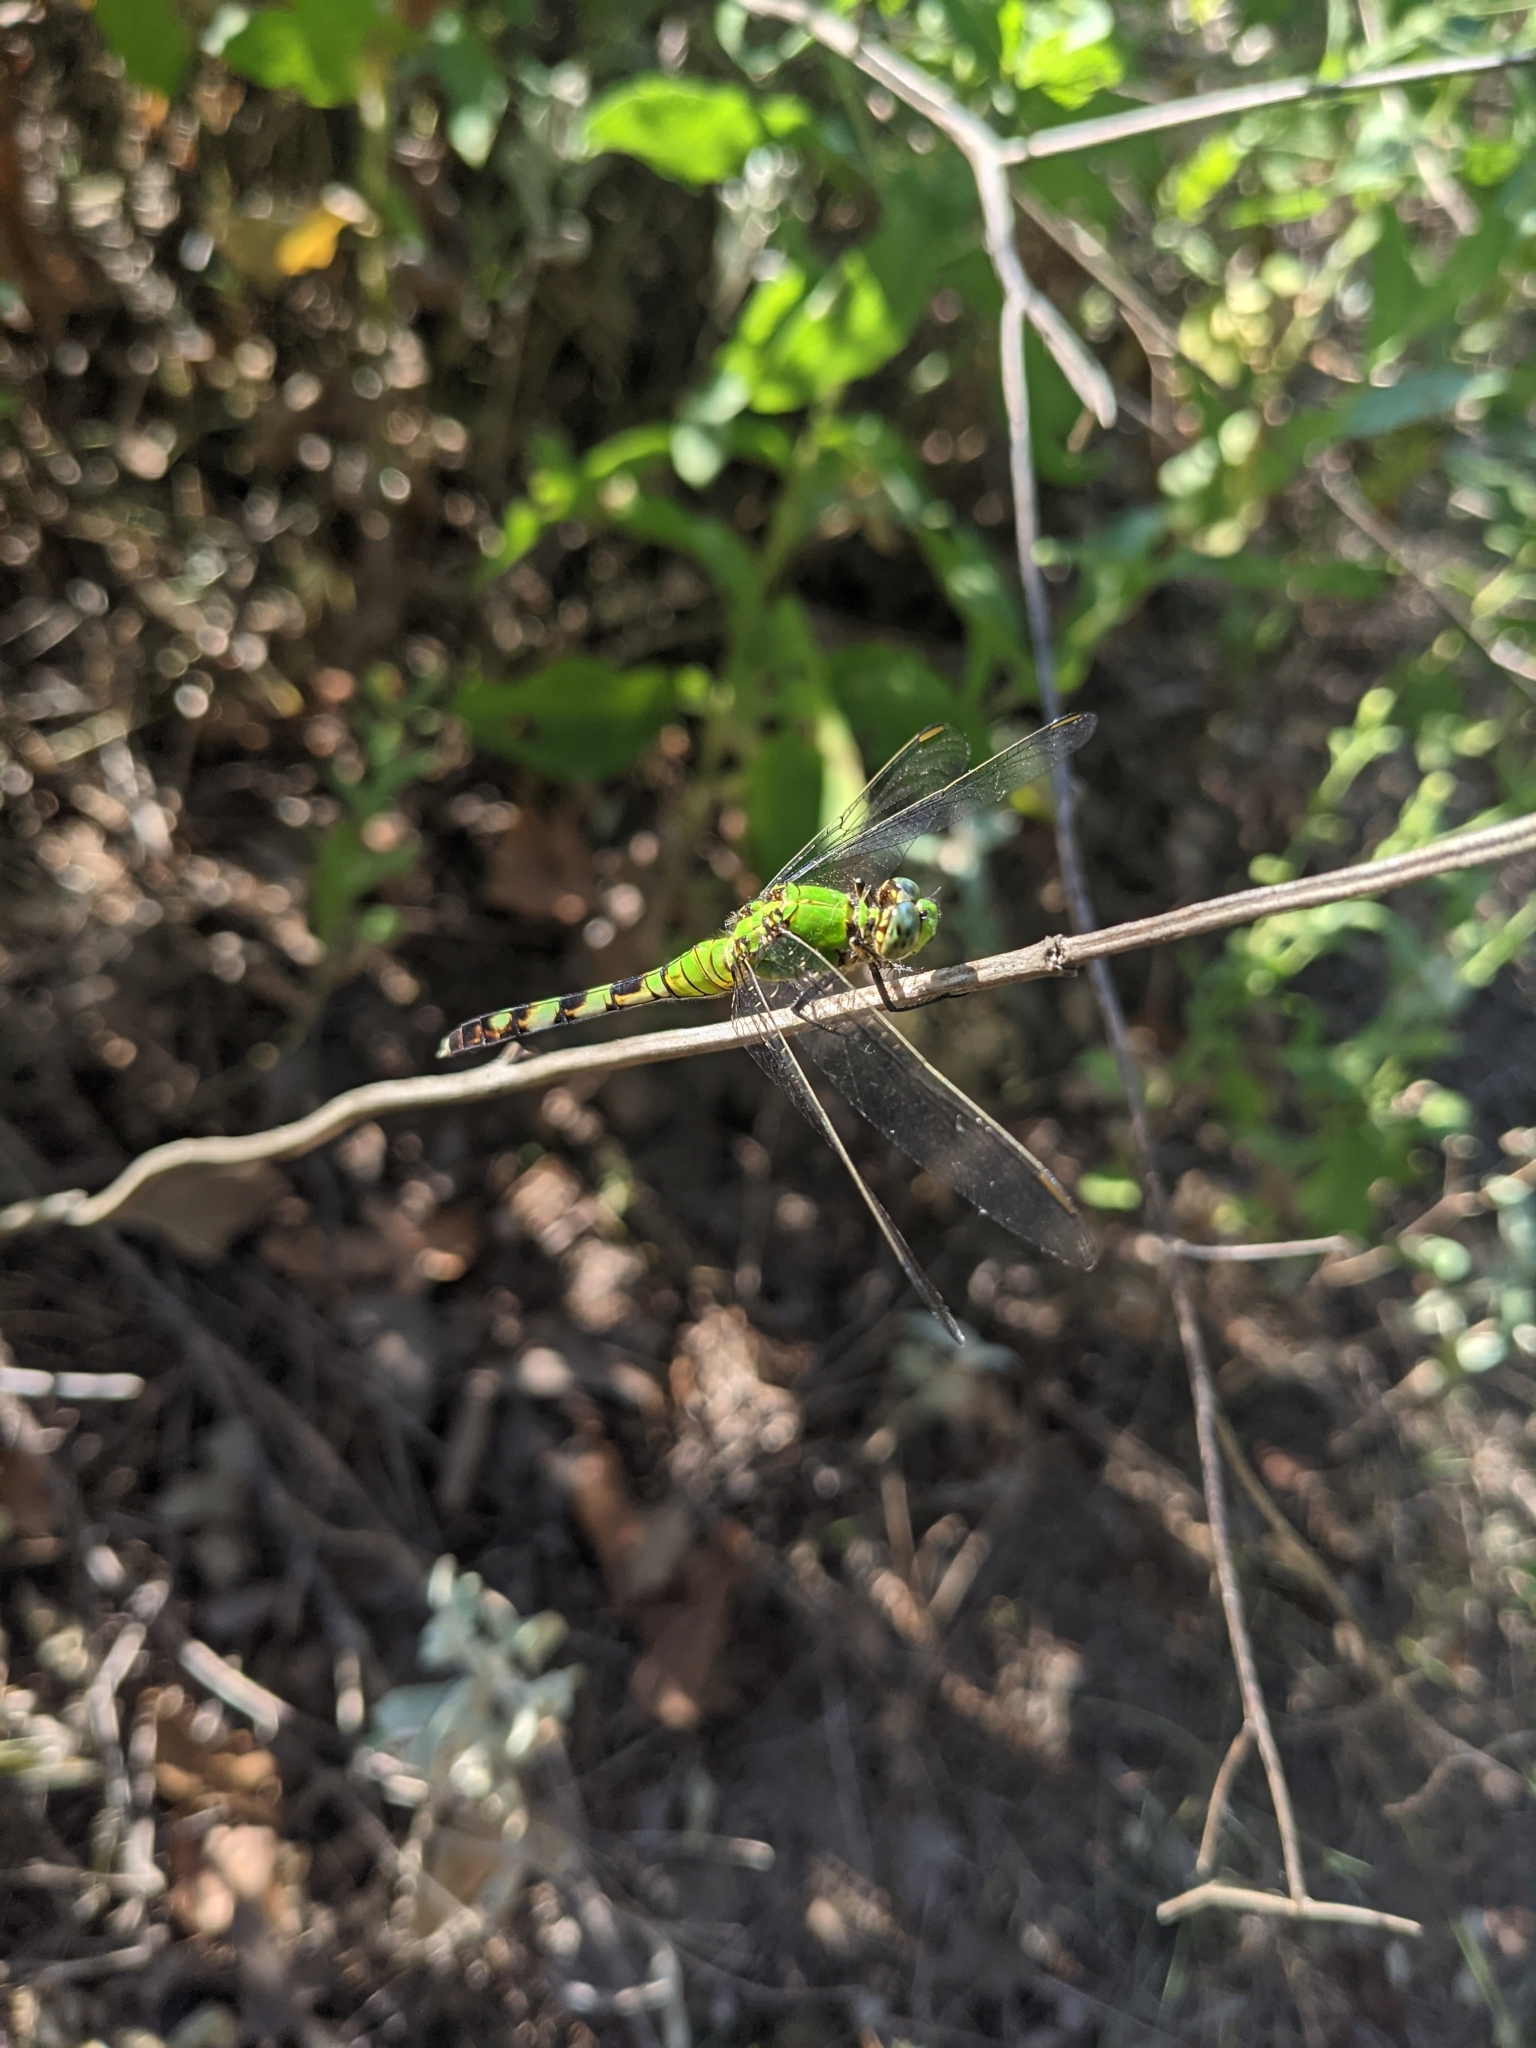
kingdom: Animalia
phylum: Arthropoda
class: Insecta
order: Odonata
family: Libellulidae
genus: Erythemis
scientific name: Erythemis simplicicollis
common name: Eastern pondhawk
